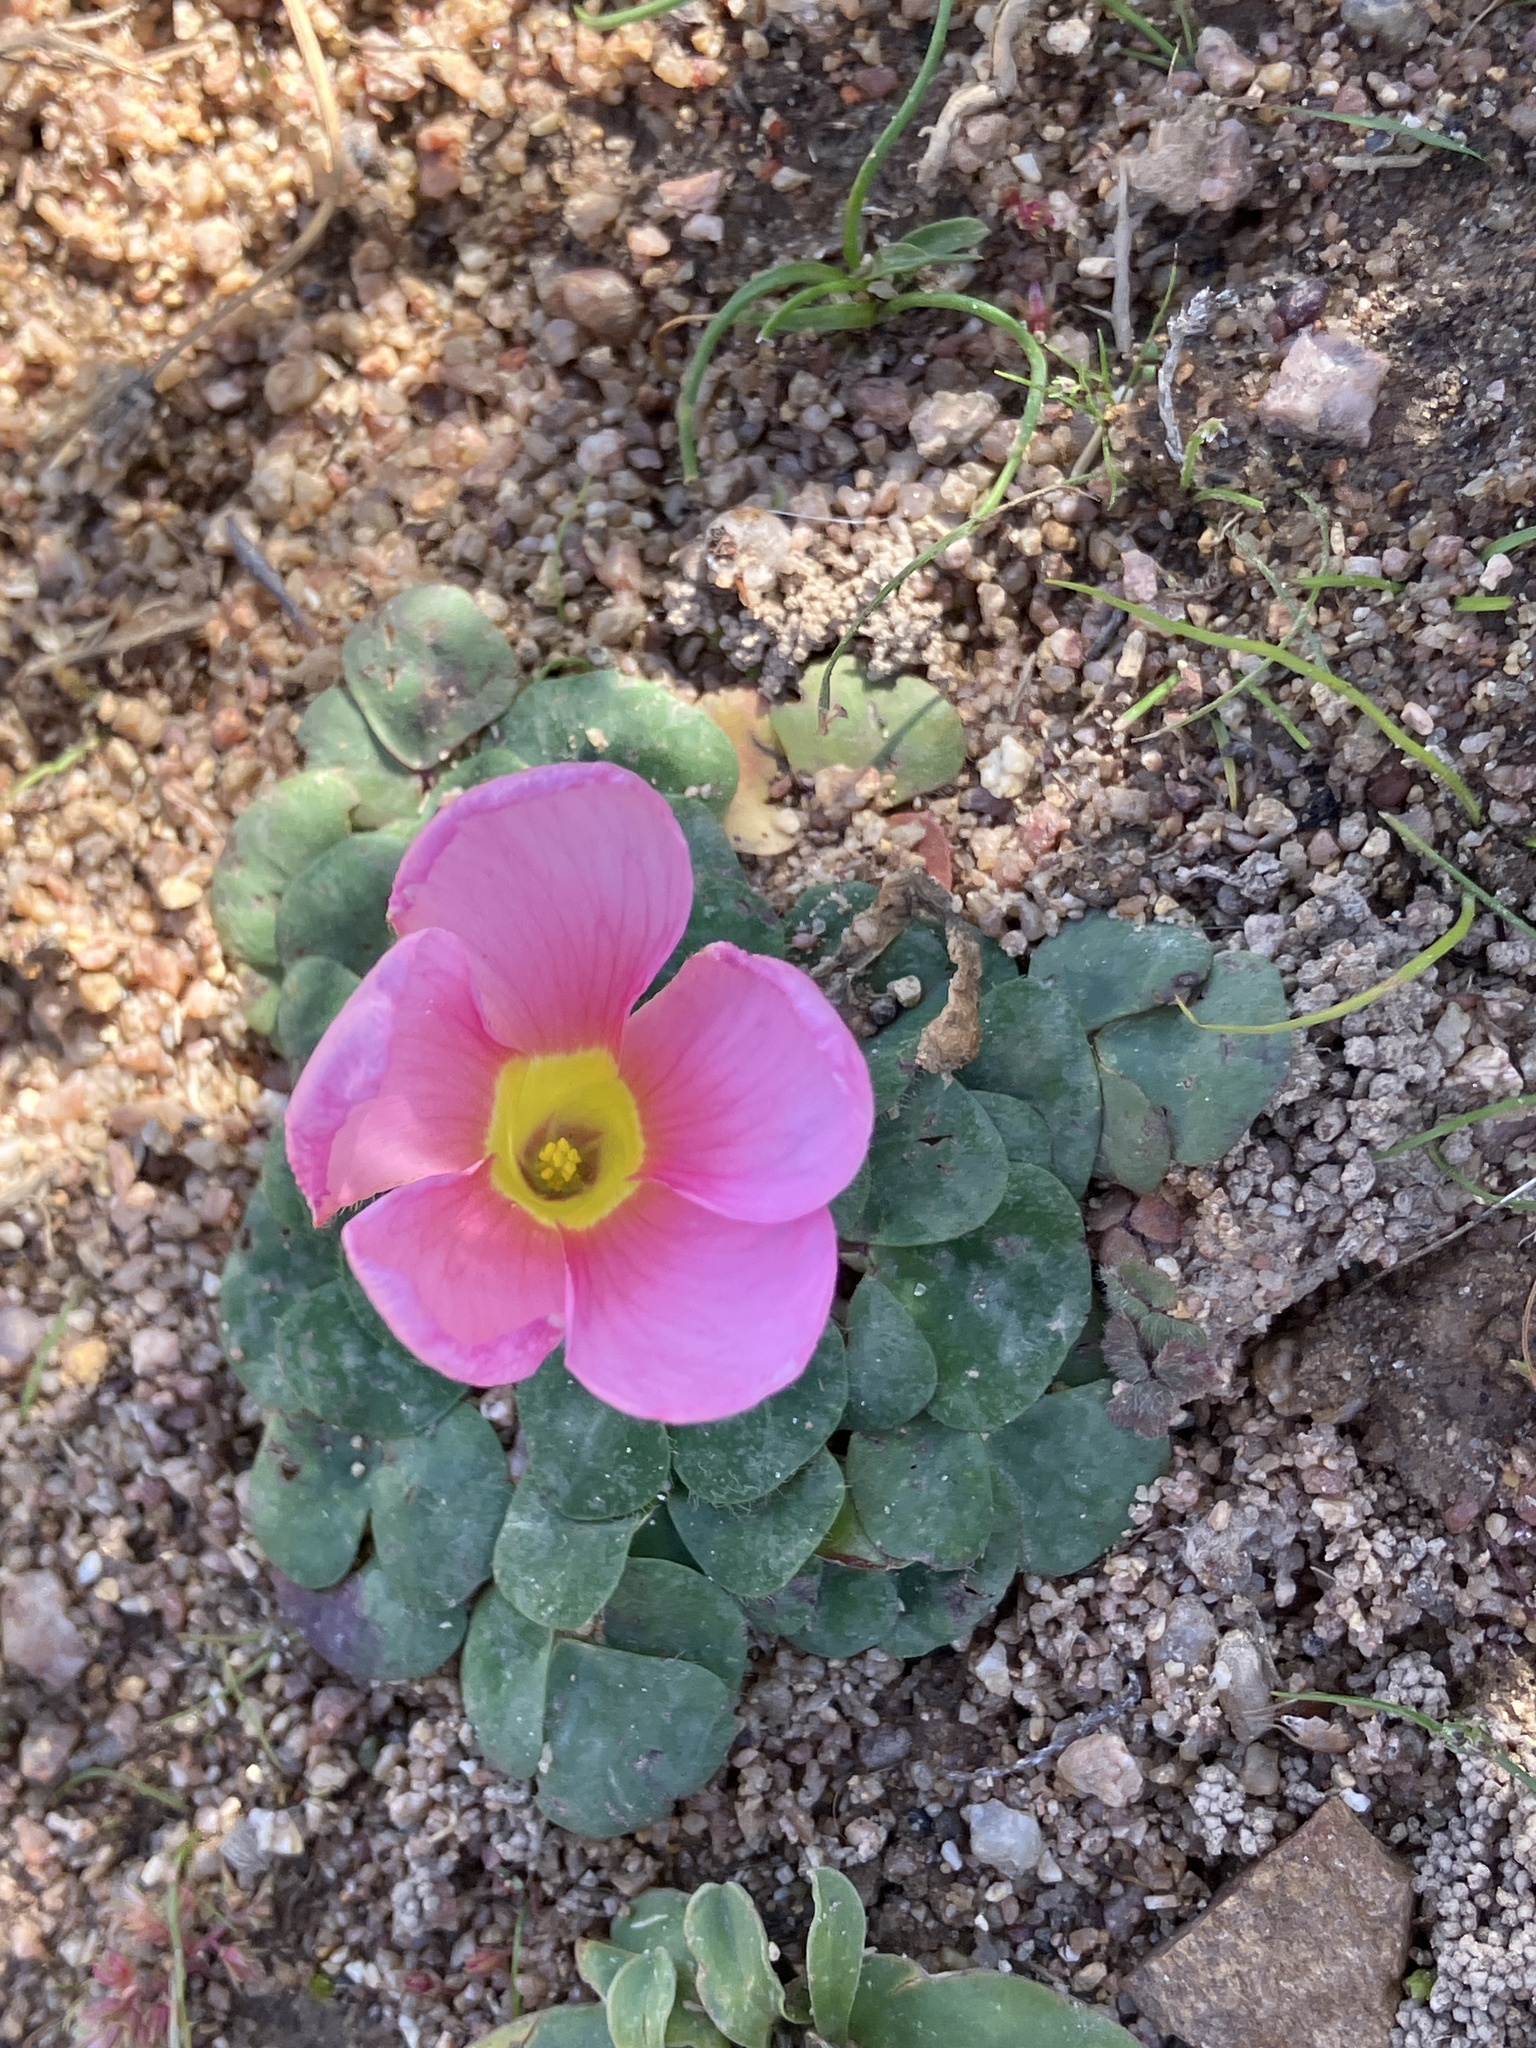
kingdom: Plantae
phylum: Tracheophyta
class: Magnoliopsida
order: Oxalidales
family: Oxalidaceae
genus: Oxalis
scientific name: Oxalis purpurea
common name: Purple woodsorrel
